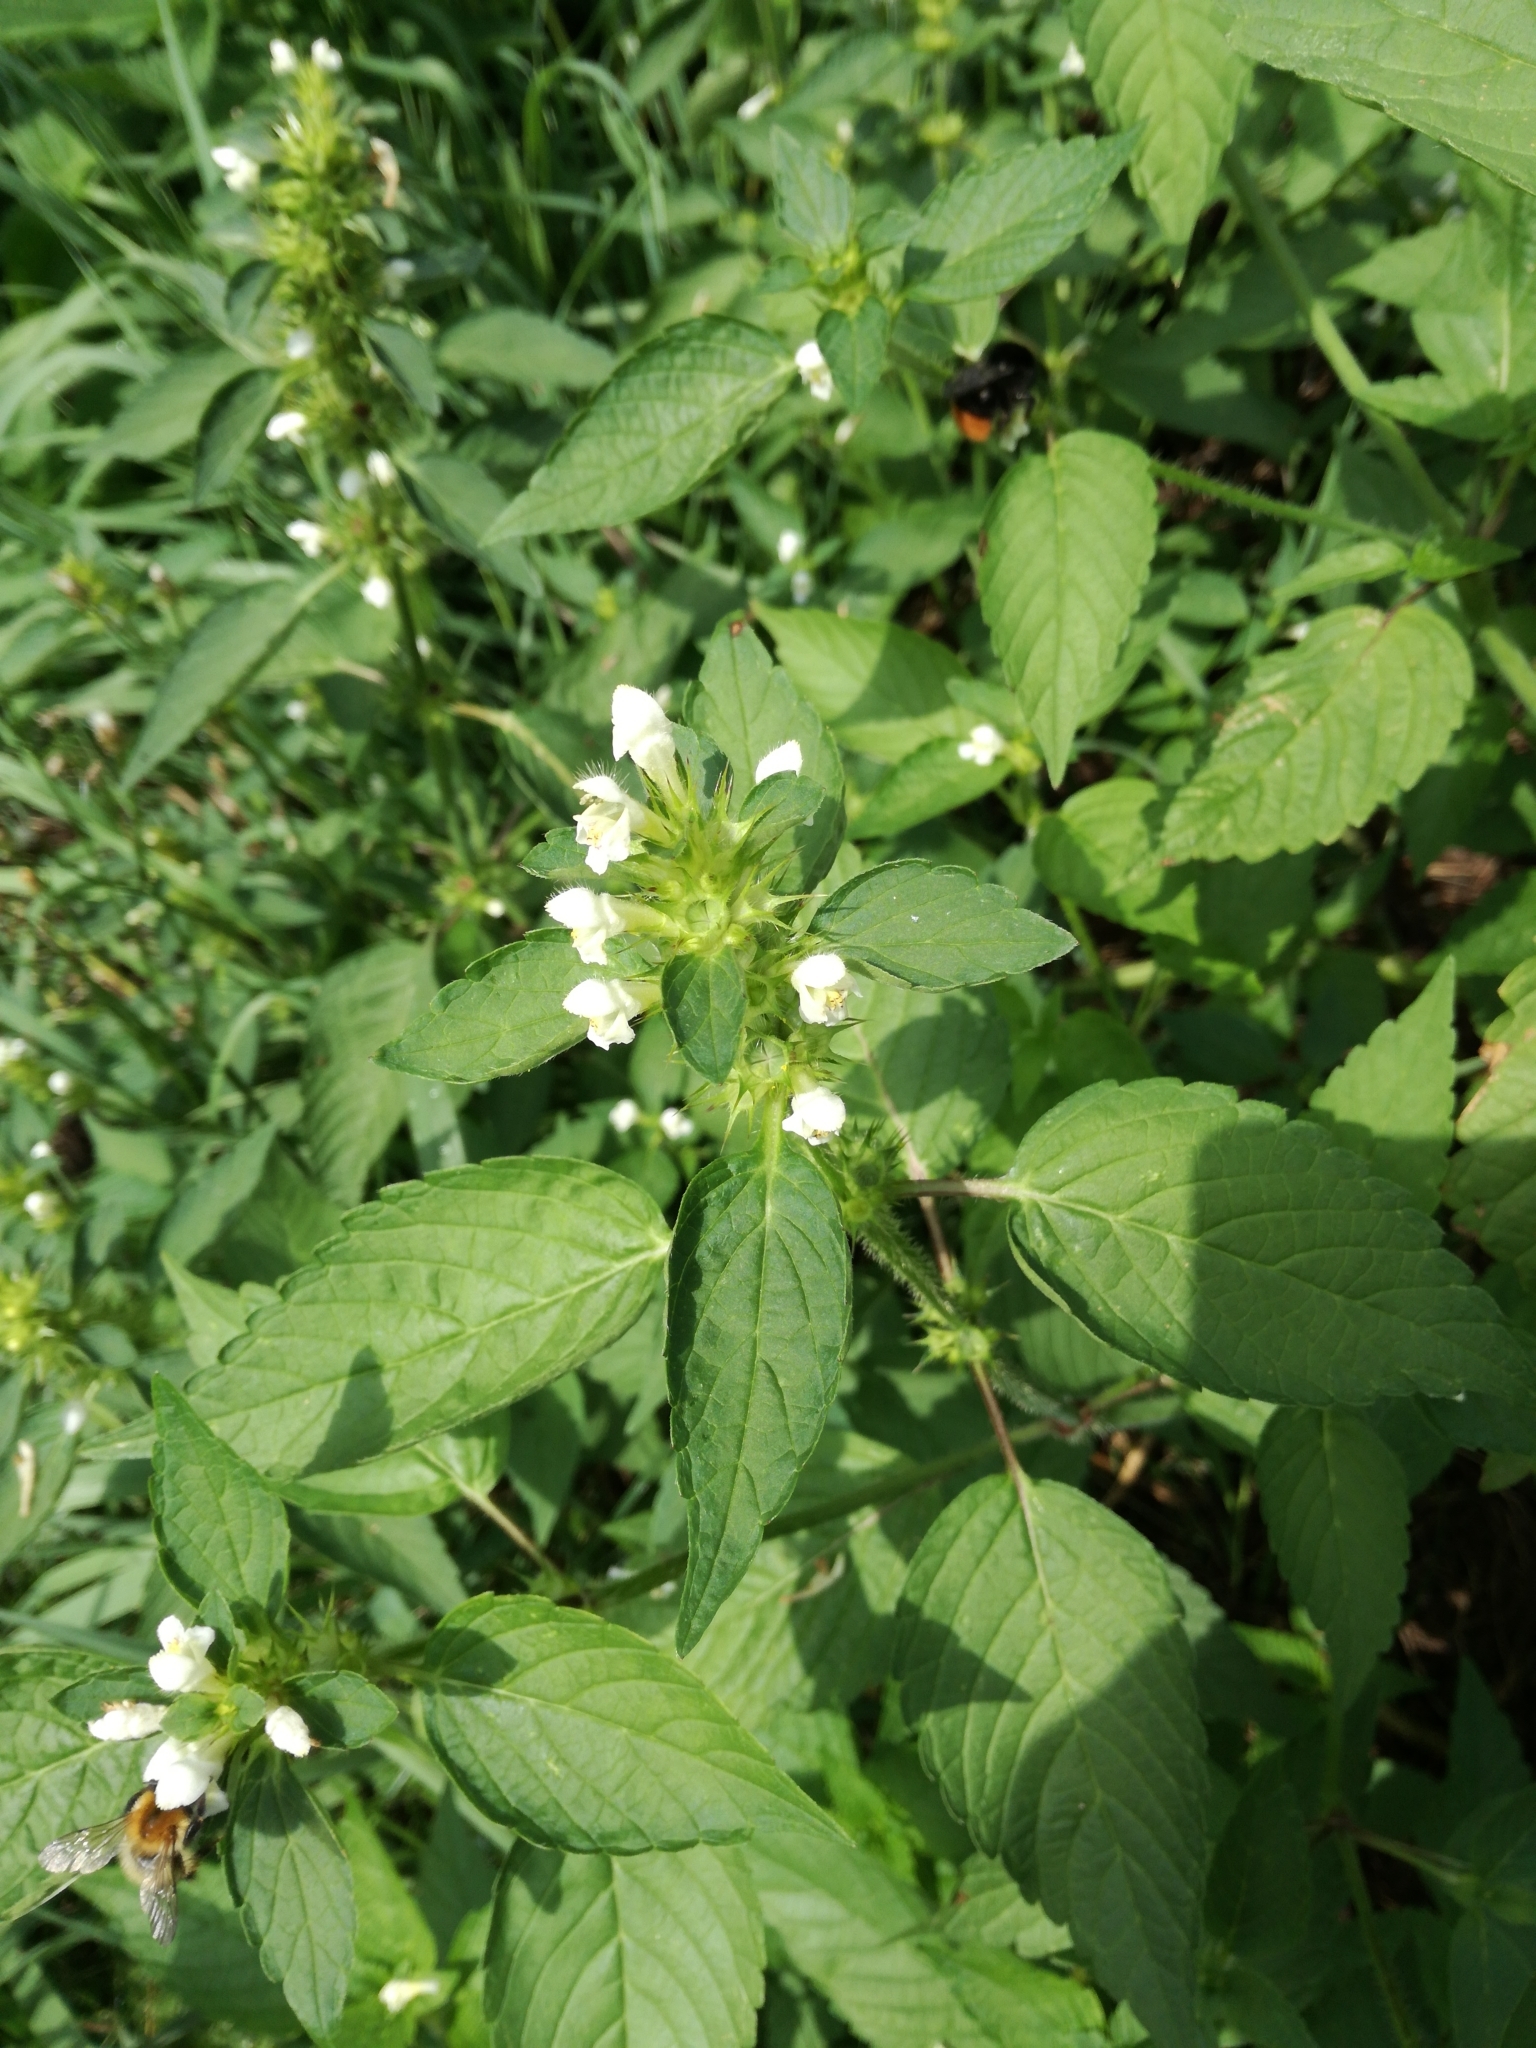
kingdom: Plantae
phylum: Tracheophyta
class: Magnoliopsida
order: Lamiales
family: Lamiaceae
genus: Galeopsis
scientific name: Galeopsis tetrahit
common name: Common hemp-nettle
